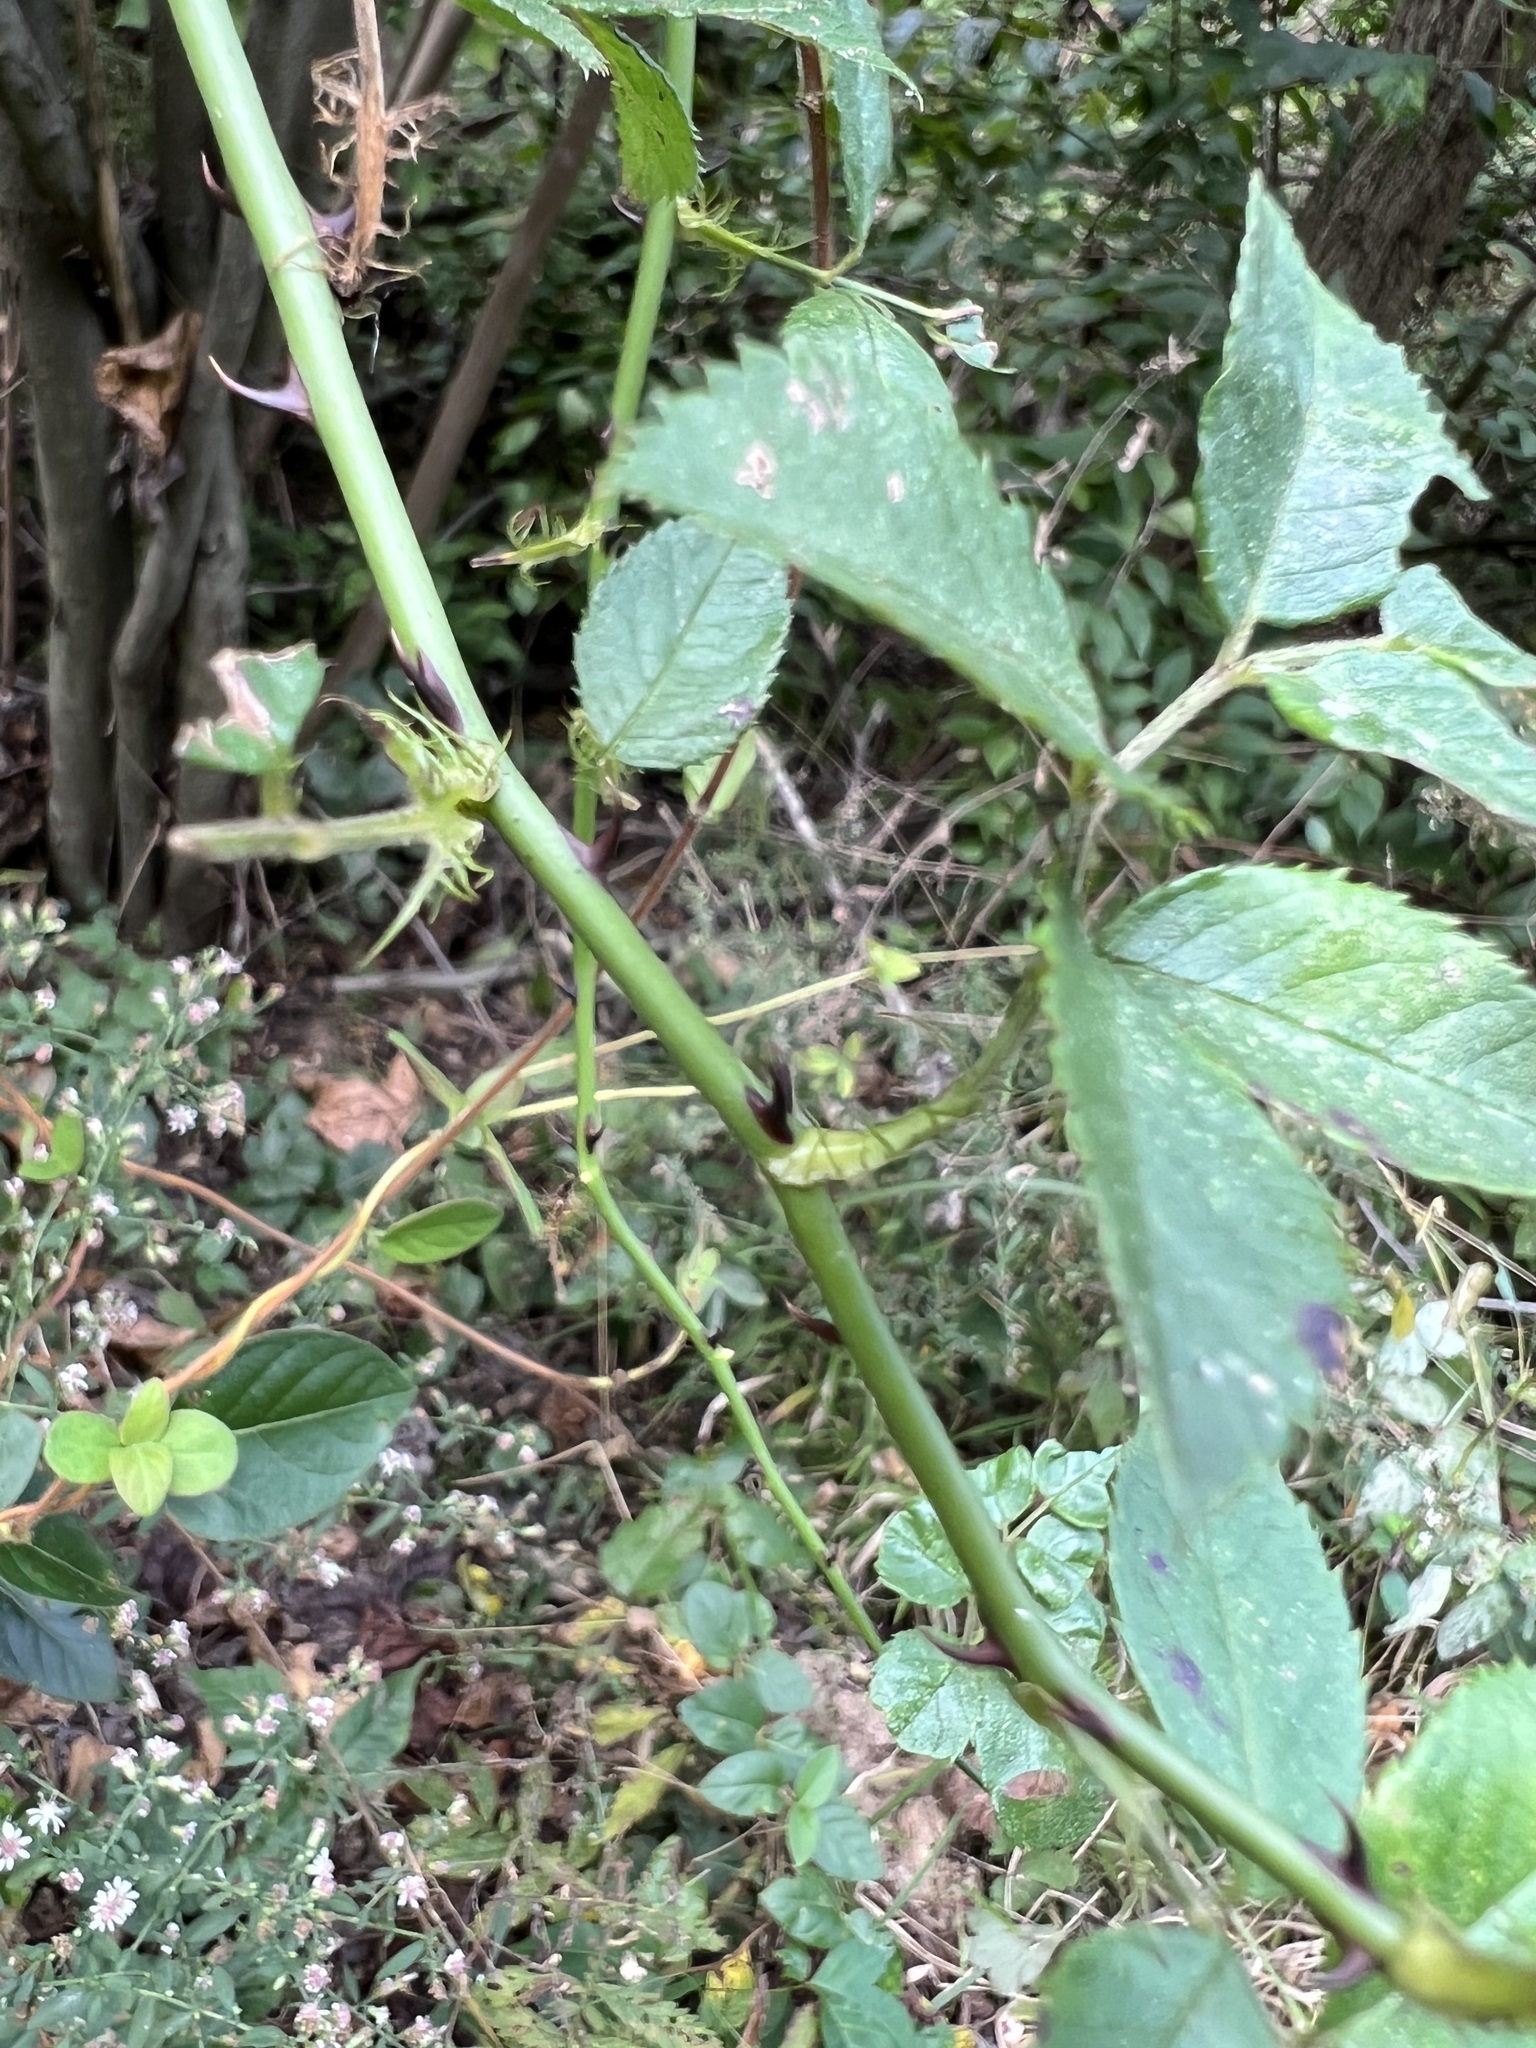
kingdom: Plantae
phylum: Tracheophyta
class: Magnoliopsida
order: Rosales
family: Rosaceae
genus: Rosa
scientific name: Rosa multiflora
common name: Multiflora rose
